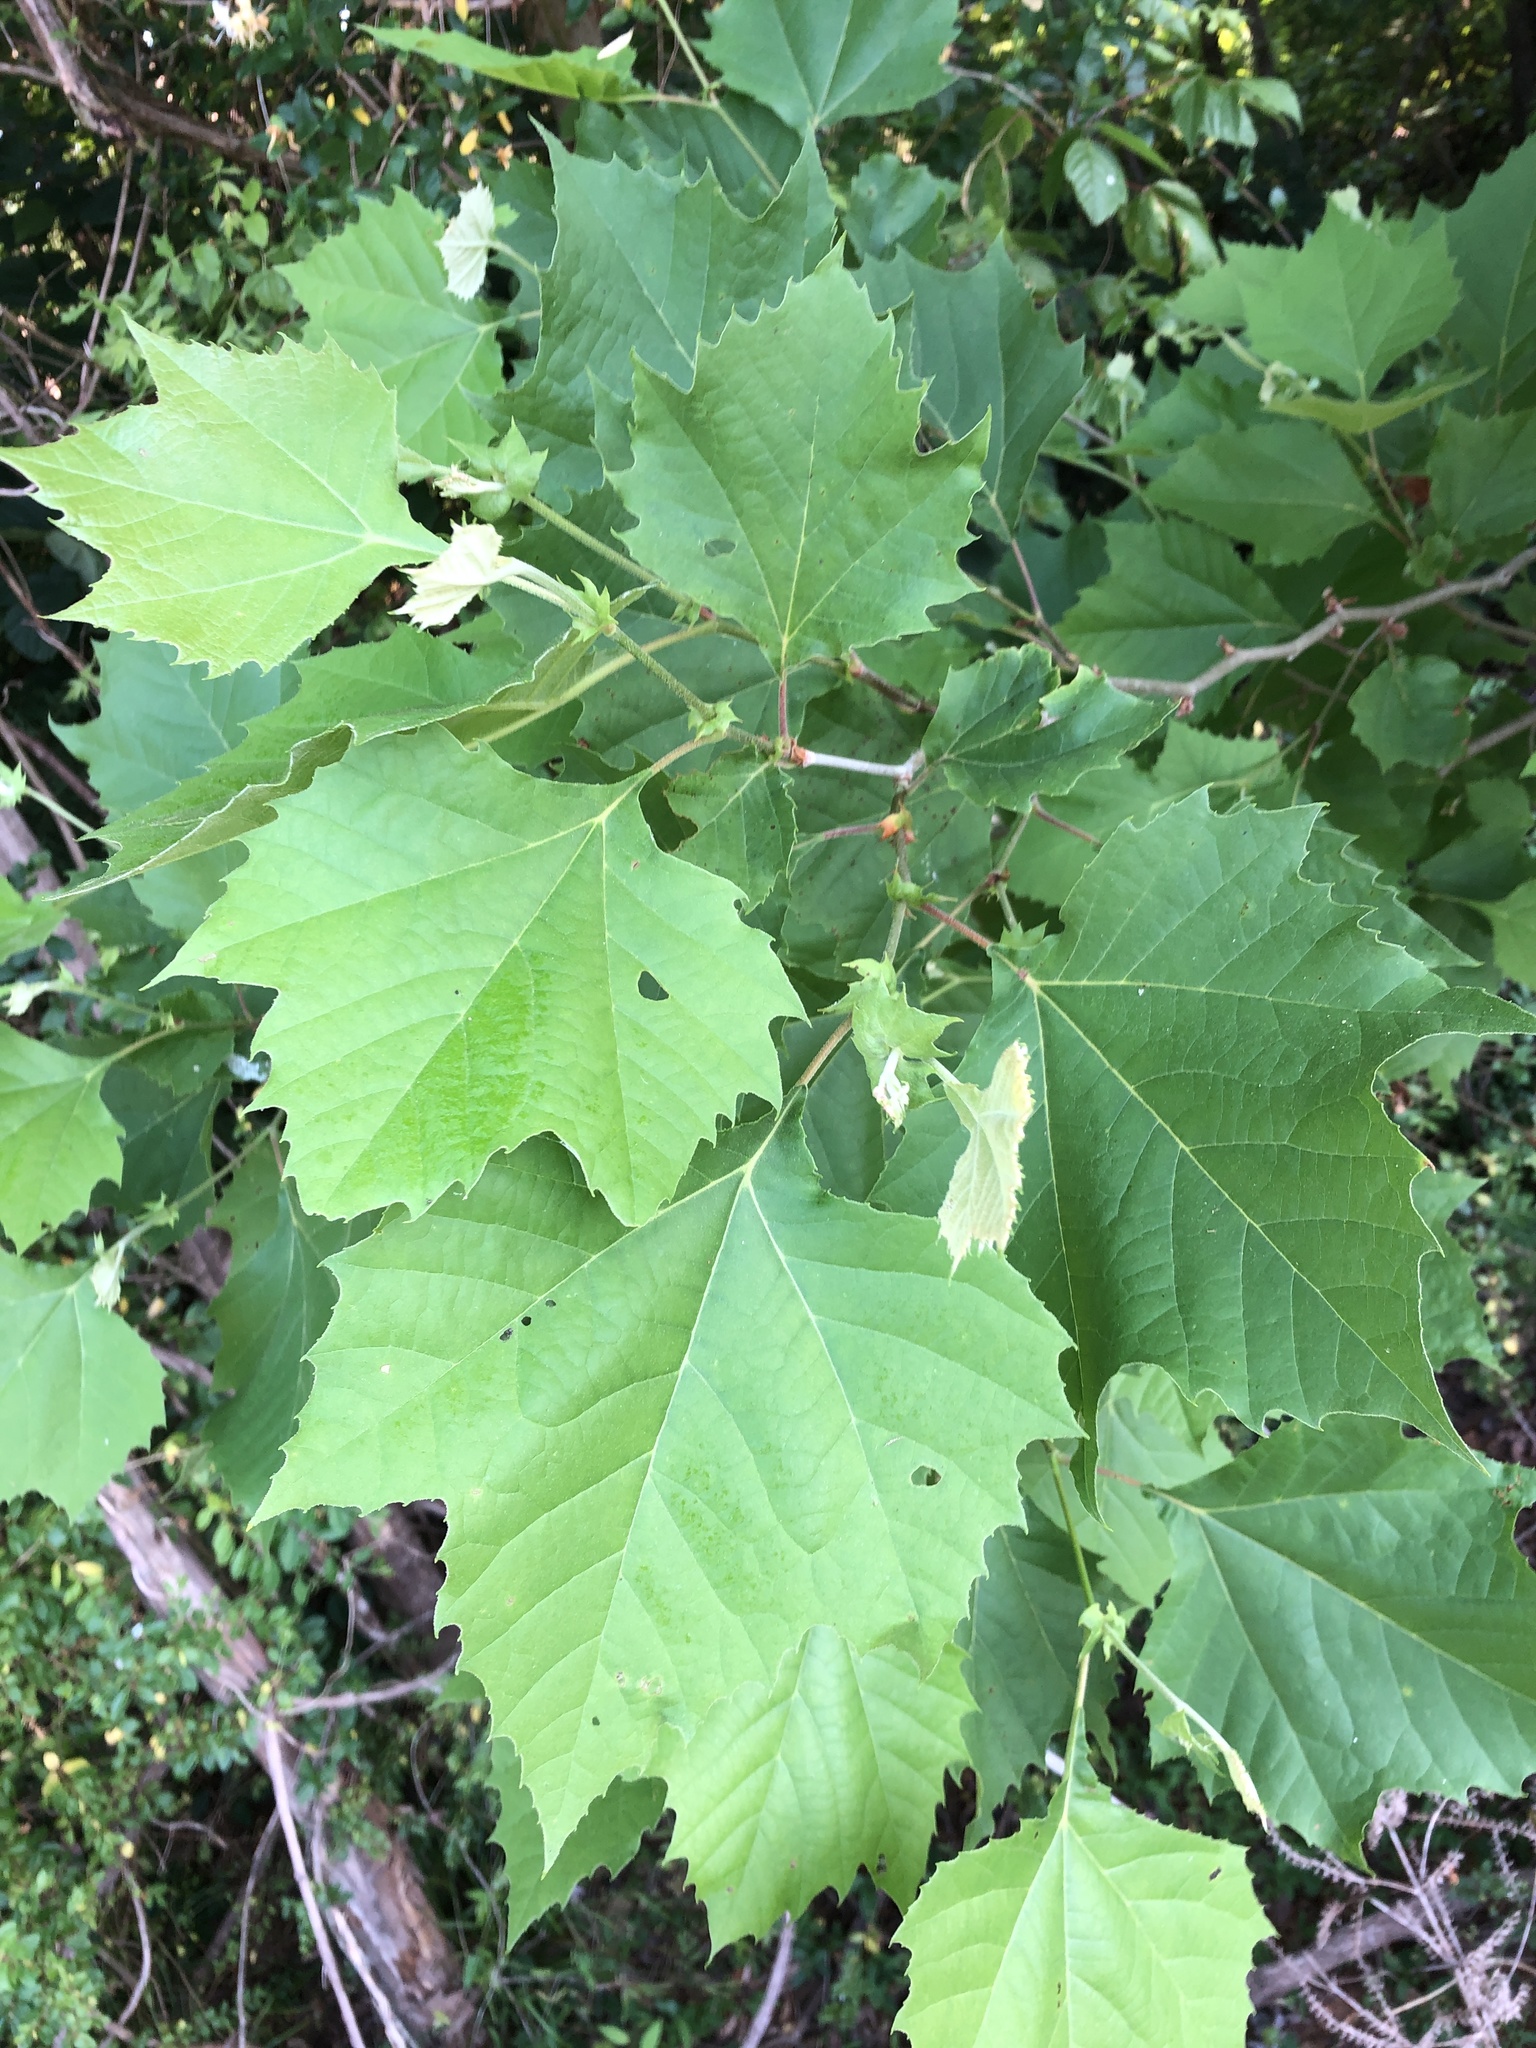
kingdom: Plantae
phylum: Tracheophyta
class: Magnoliopsida
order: Proteales
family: Platanaceae
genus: Platanus
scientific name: Platanus occidentalis
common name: American sycamore
